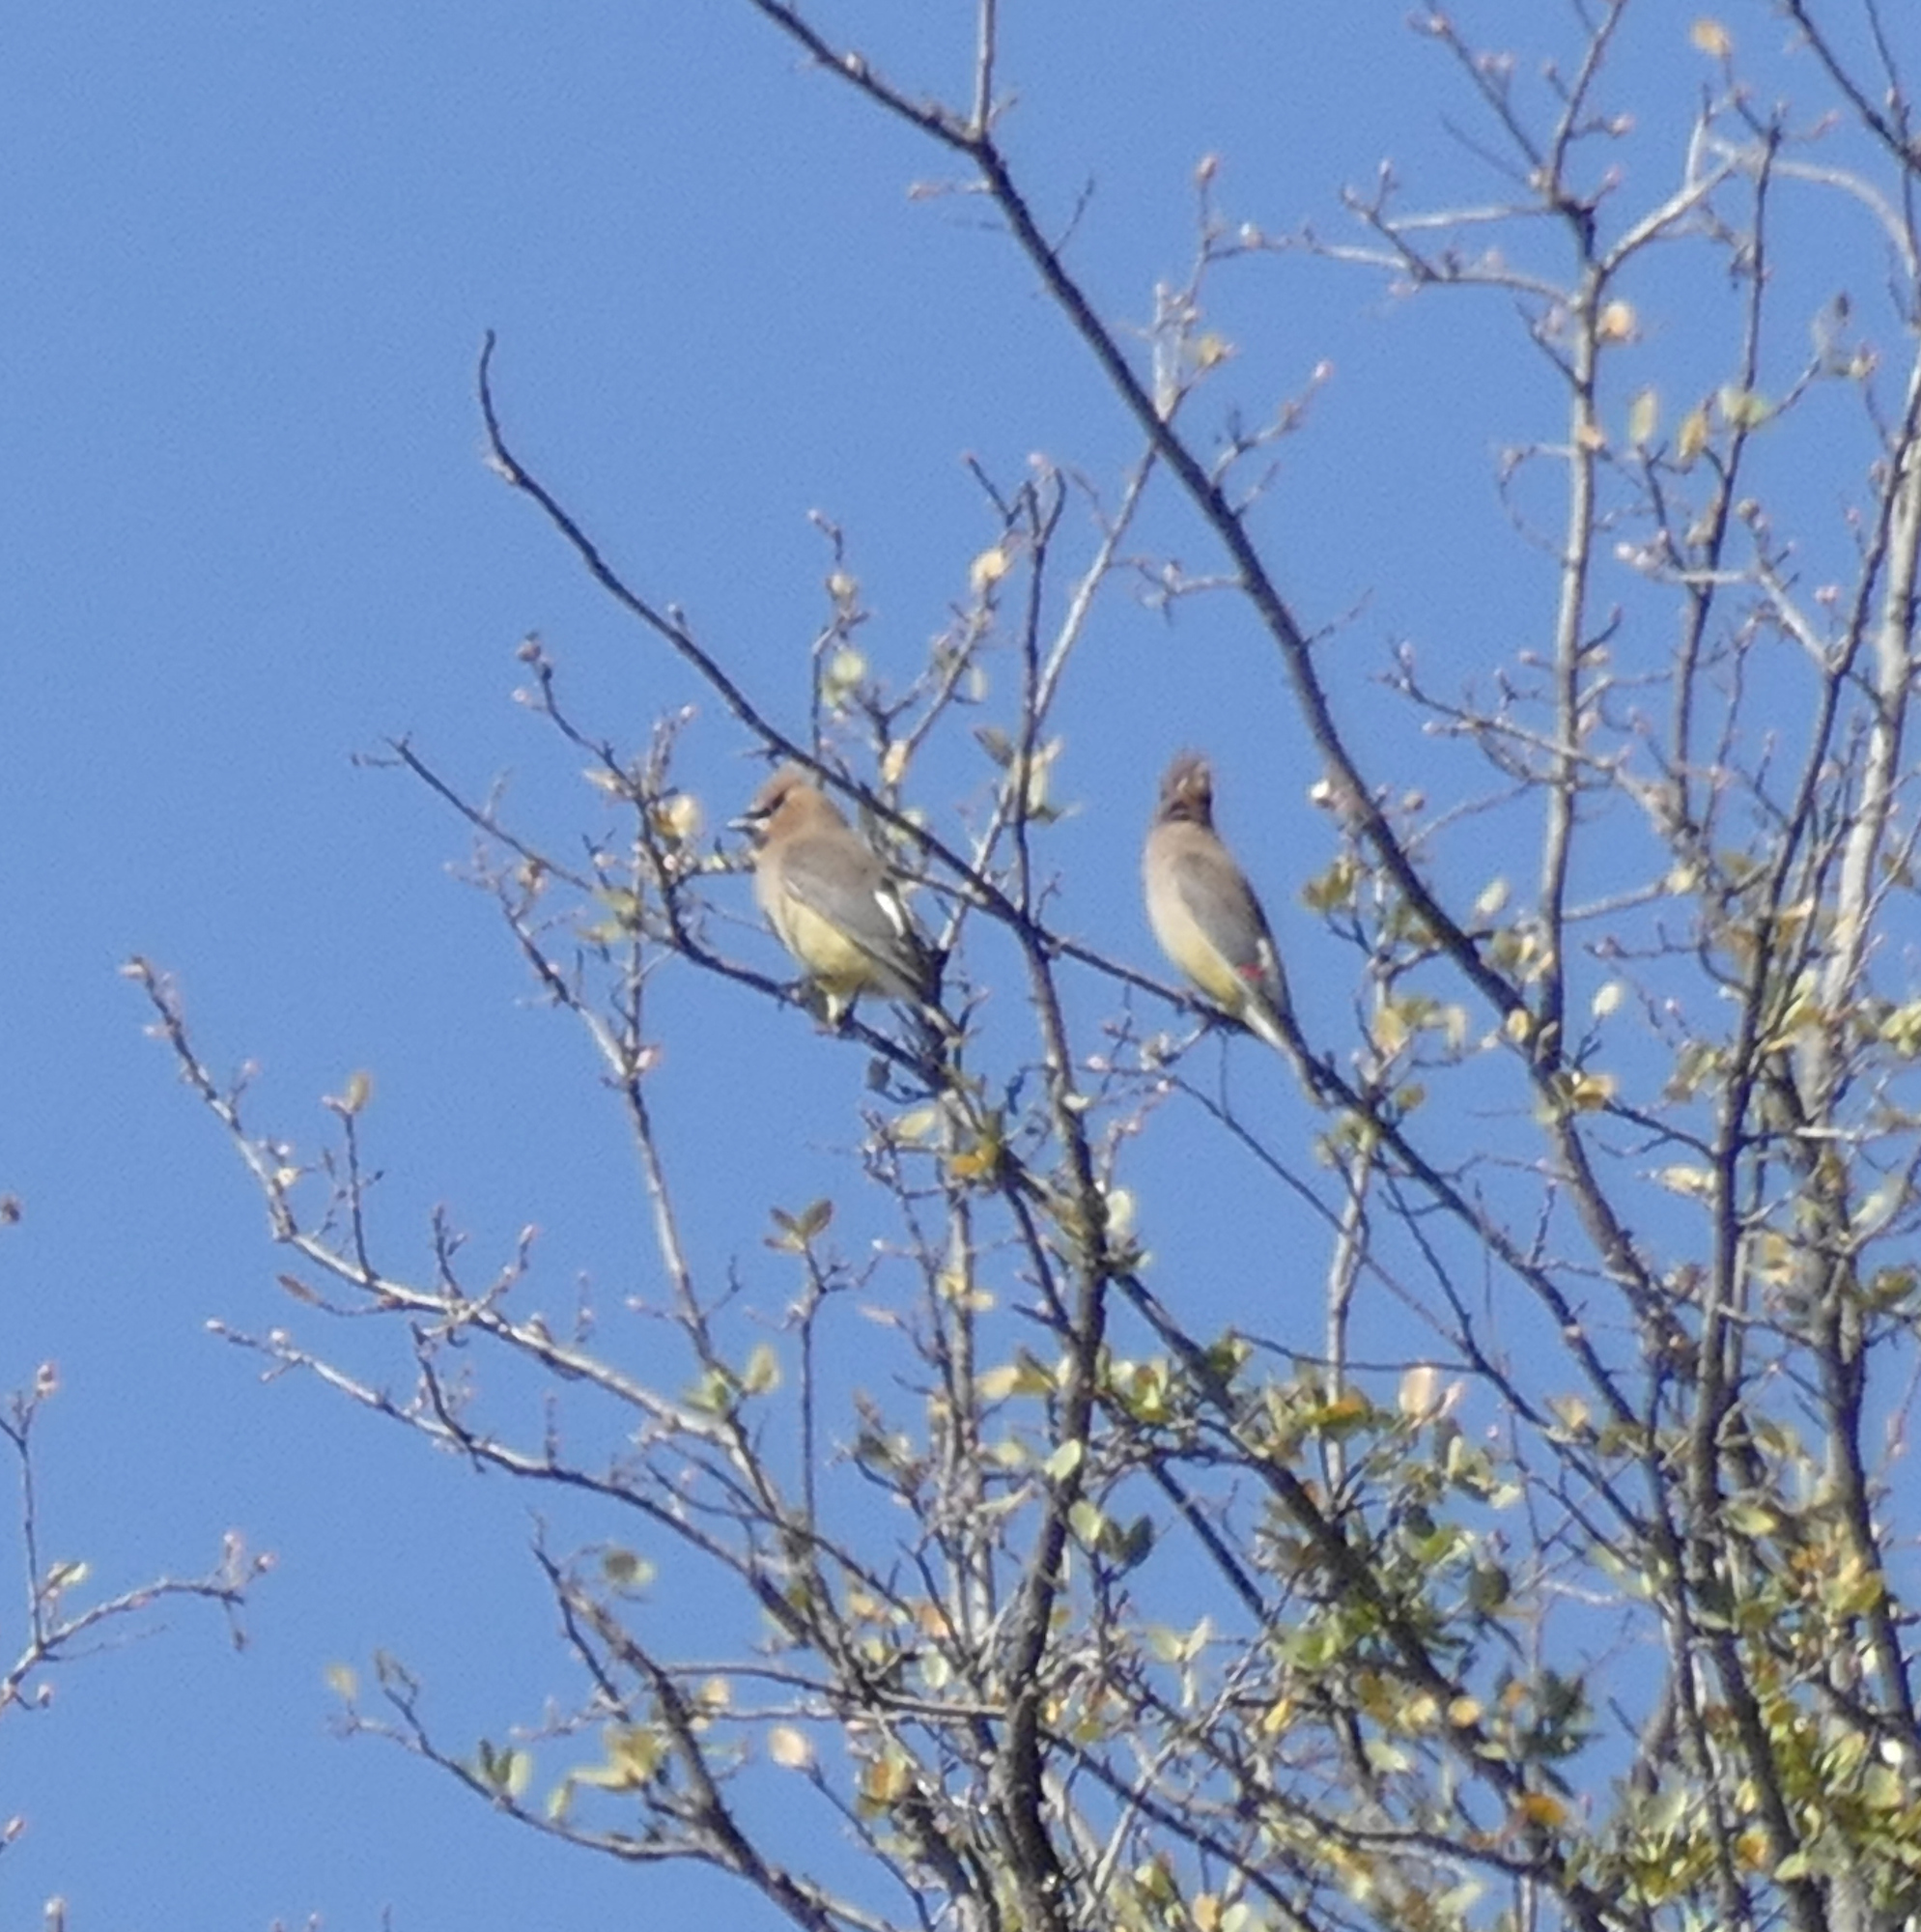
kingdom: Animalia
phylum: Chordata
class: Aves
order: Passeriformes
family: Bombycillidae
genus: Bombycilla
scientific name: Bombycilla cedrorum
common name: Cedar waxwing
